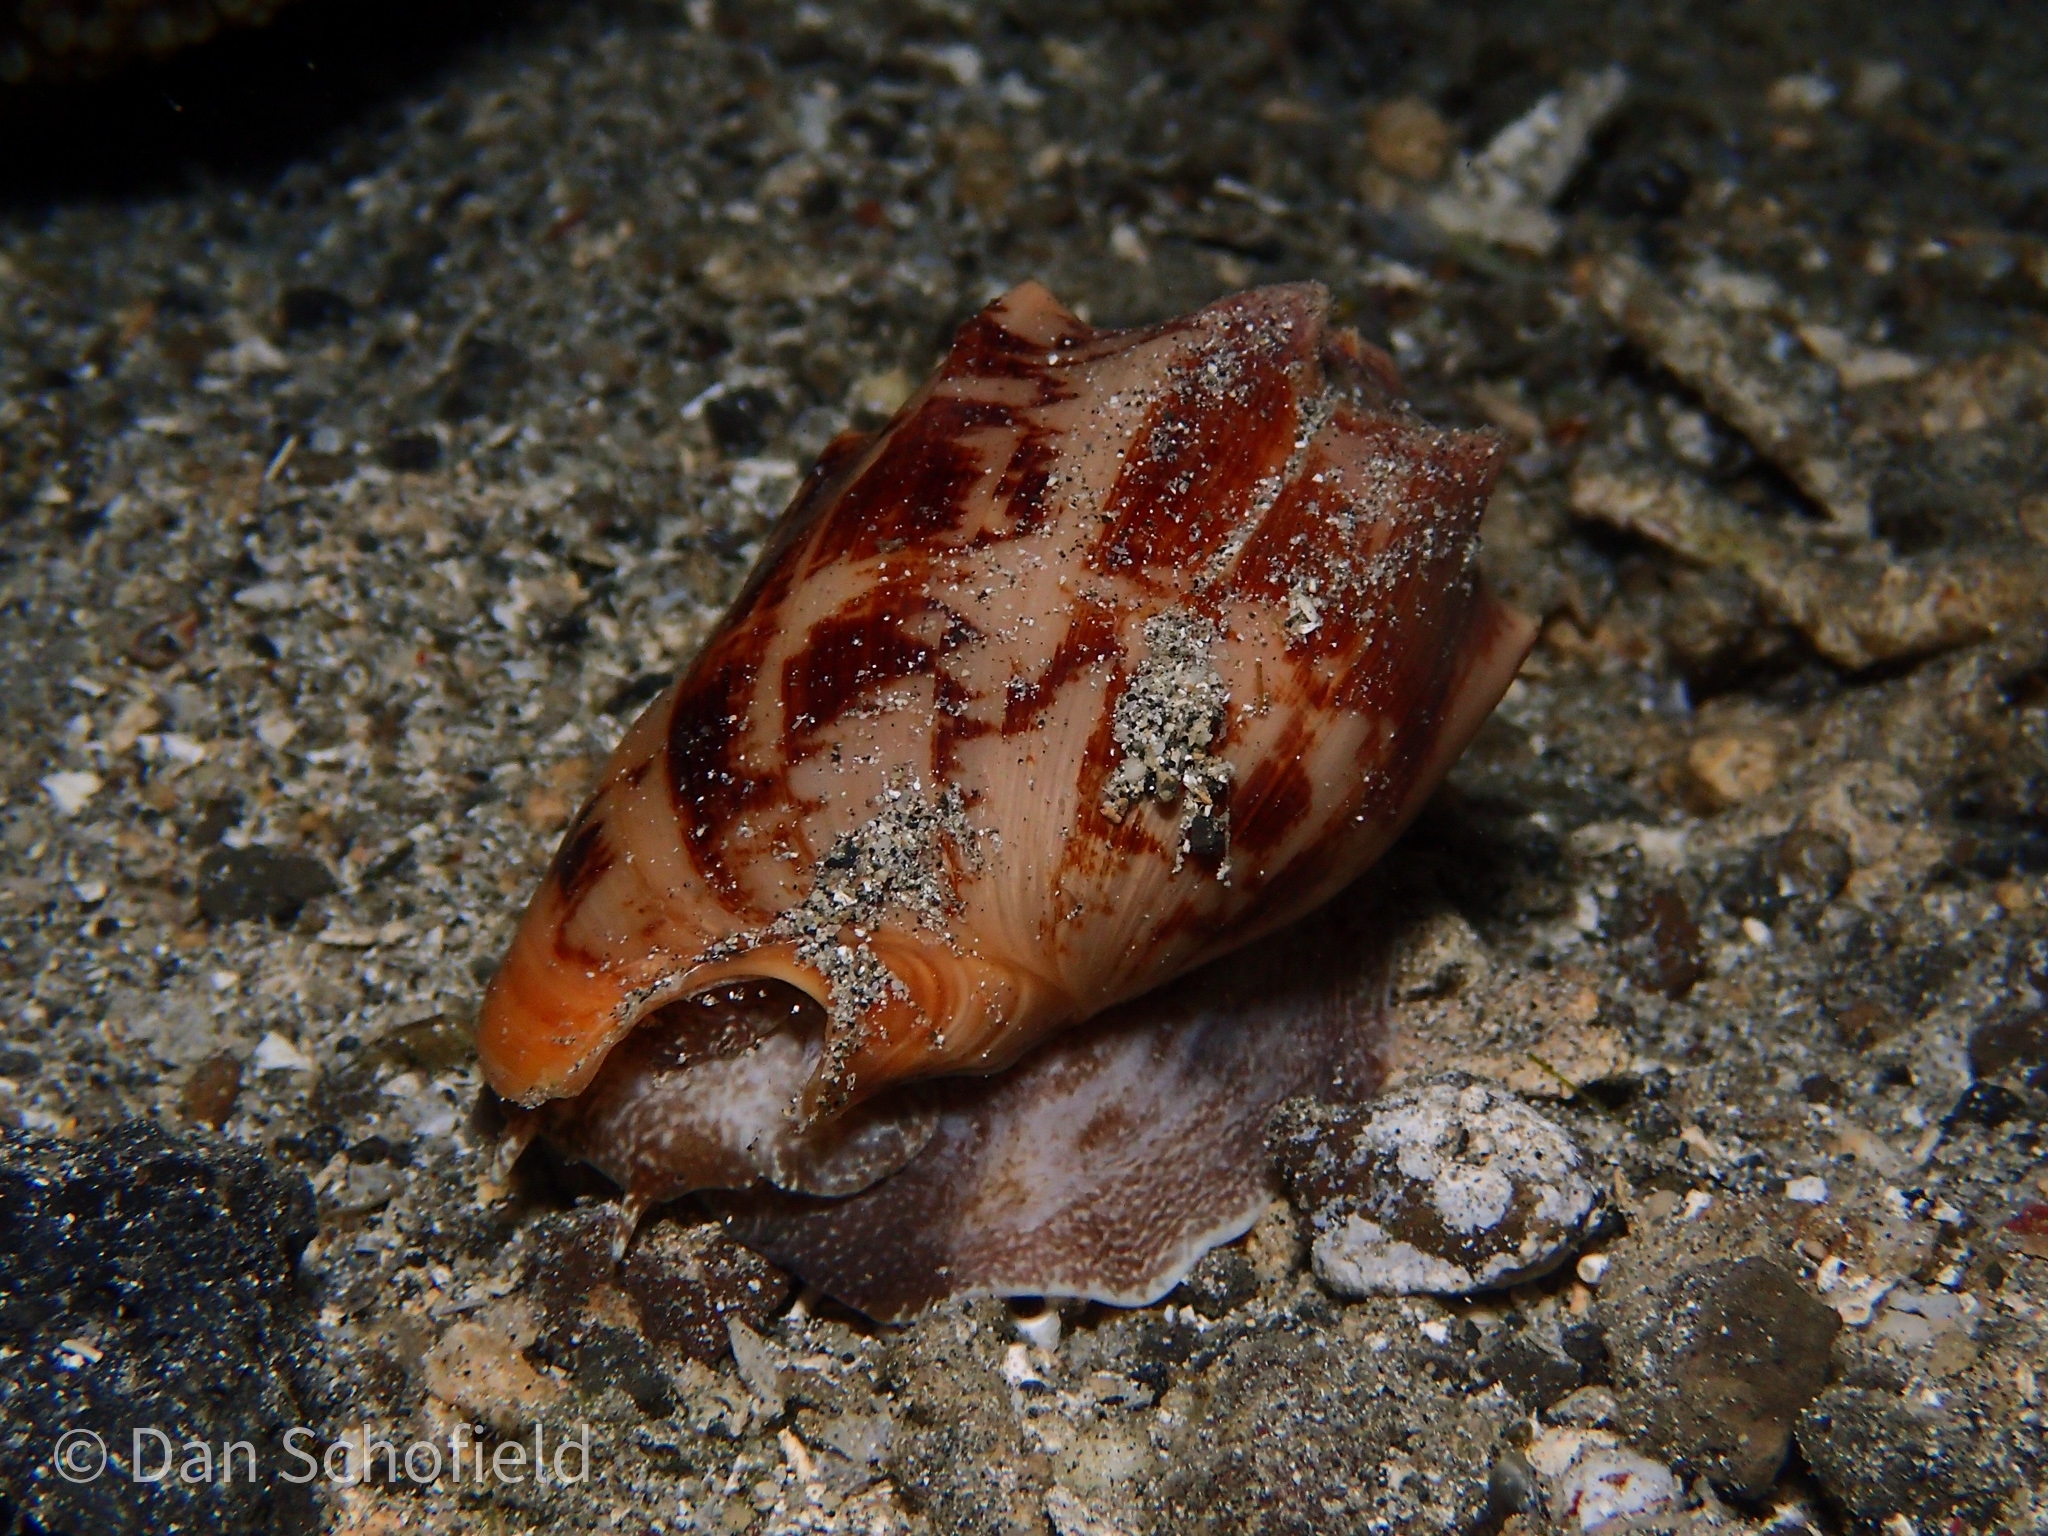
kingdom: Animalia
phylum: Mollusca
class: Gastropoda
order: Neogastropoda
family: Volutidae
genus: Cymbiola
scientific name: Cymbiola vespertilio
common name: Bat volute
